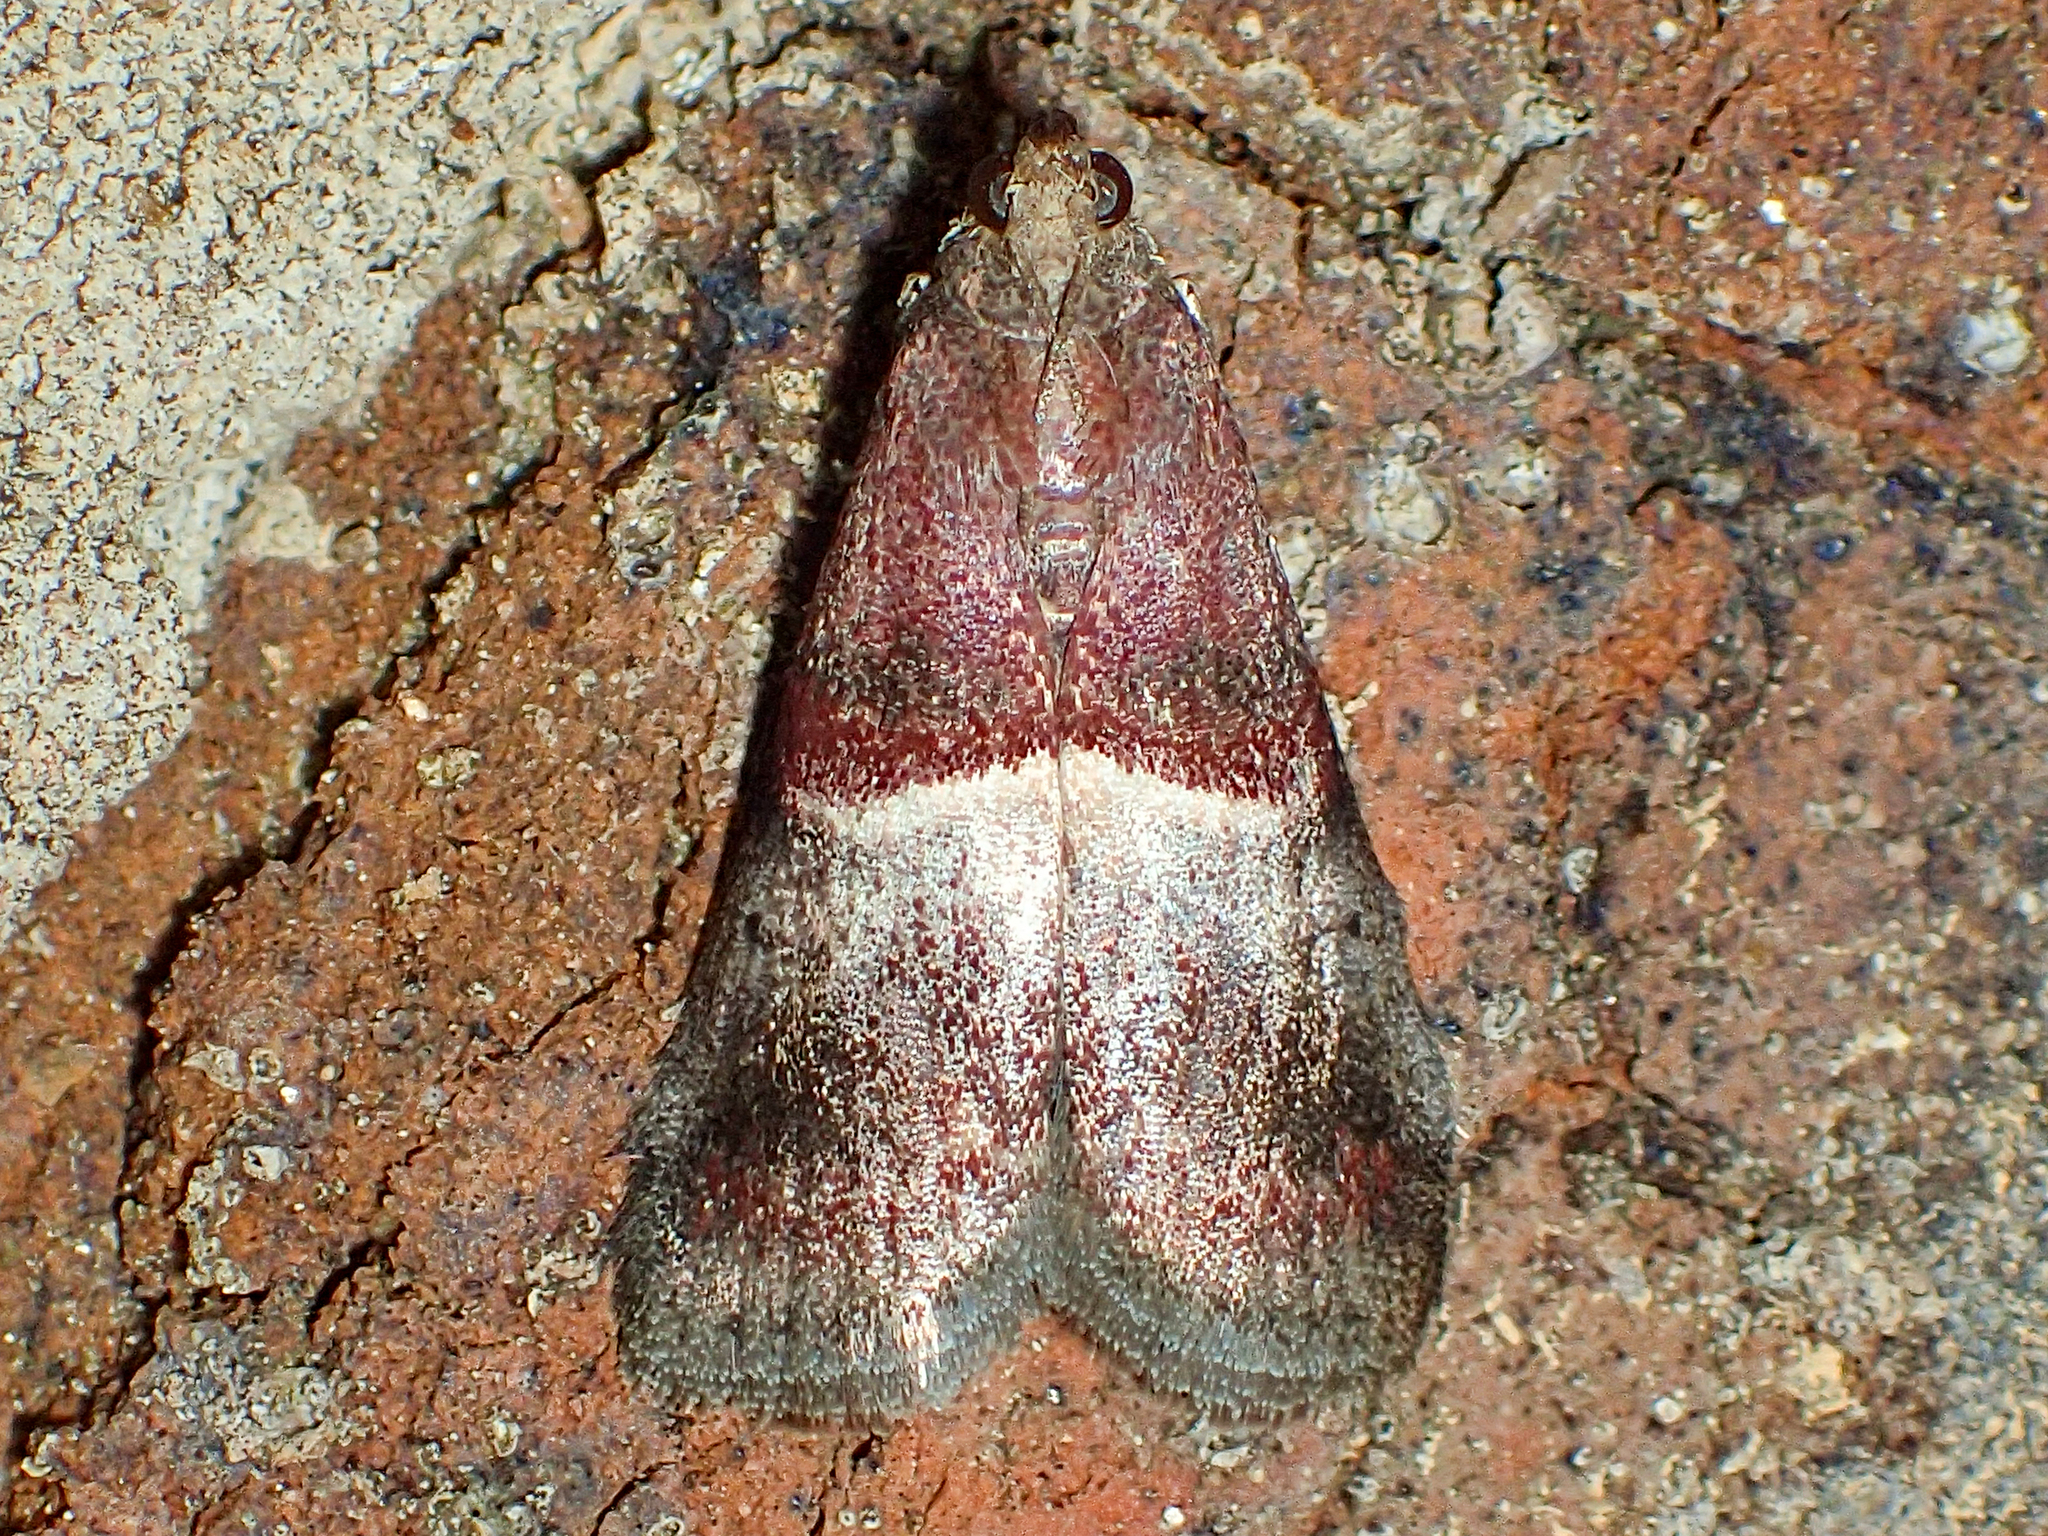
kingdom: Animalia
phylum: Arthropoda
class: Insecta
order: Lepidoptera
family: Pyralidae
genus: Moodna
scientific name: Moodna ostrinella
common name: Darker moodna moth
